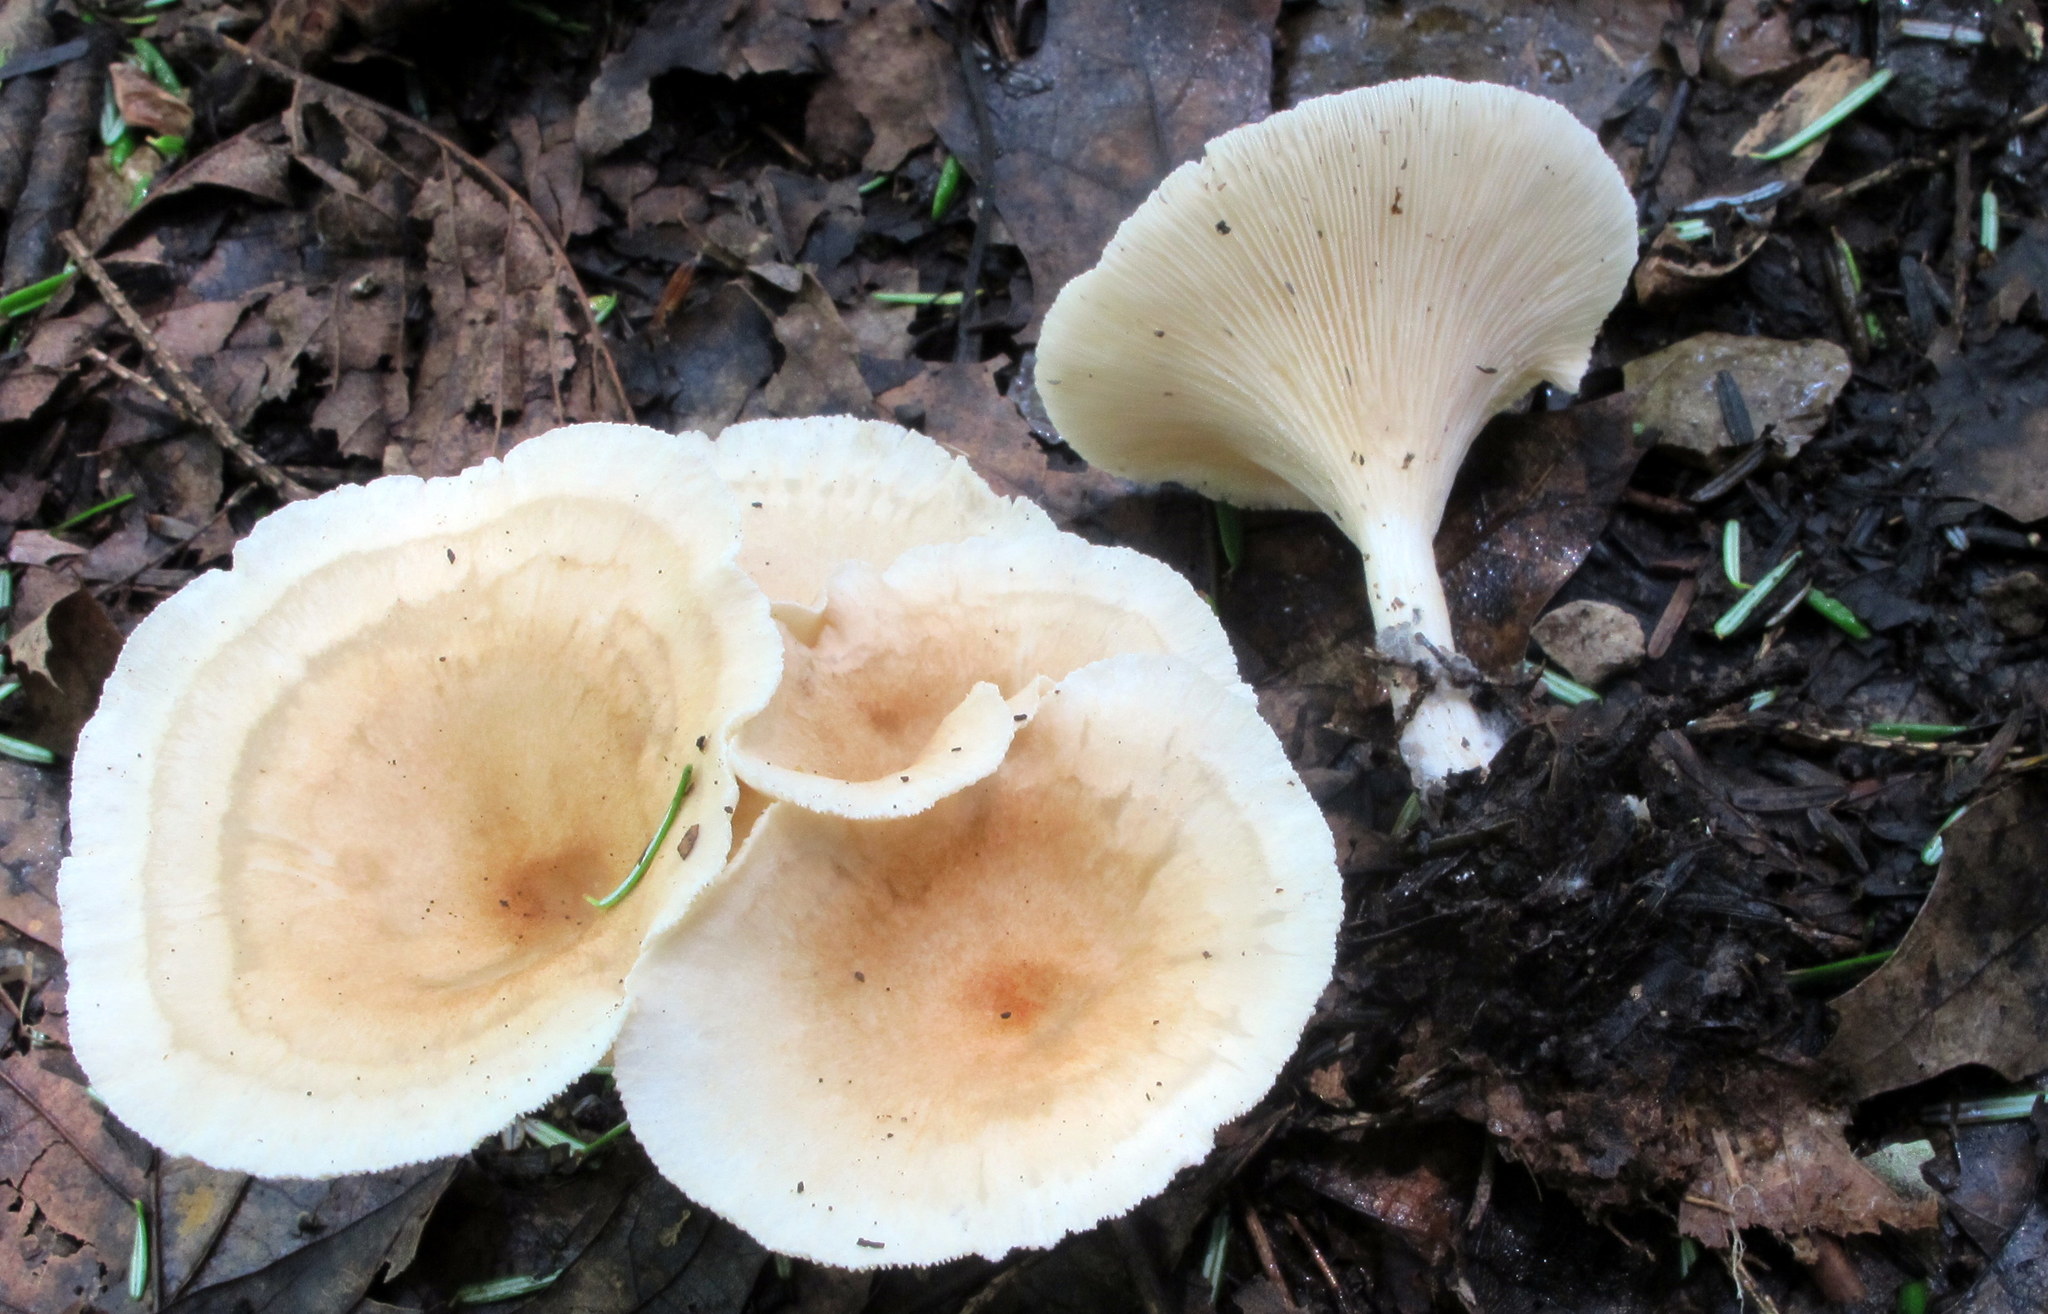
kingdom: Fungi
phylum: Basidiomycota
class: Agaricomycetes
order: Agaricales
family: Tricholomataceae
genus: Infundibulicybe
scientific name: Infundibulicybe gibba
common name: Common funnel
